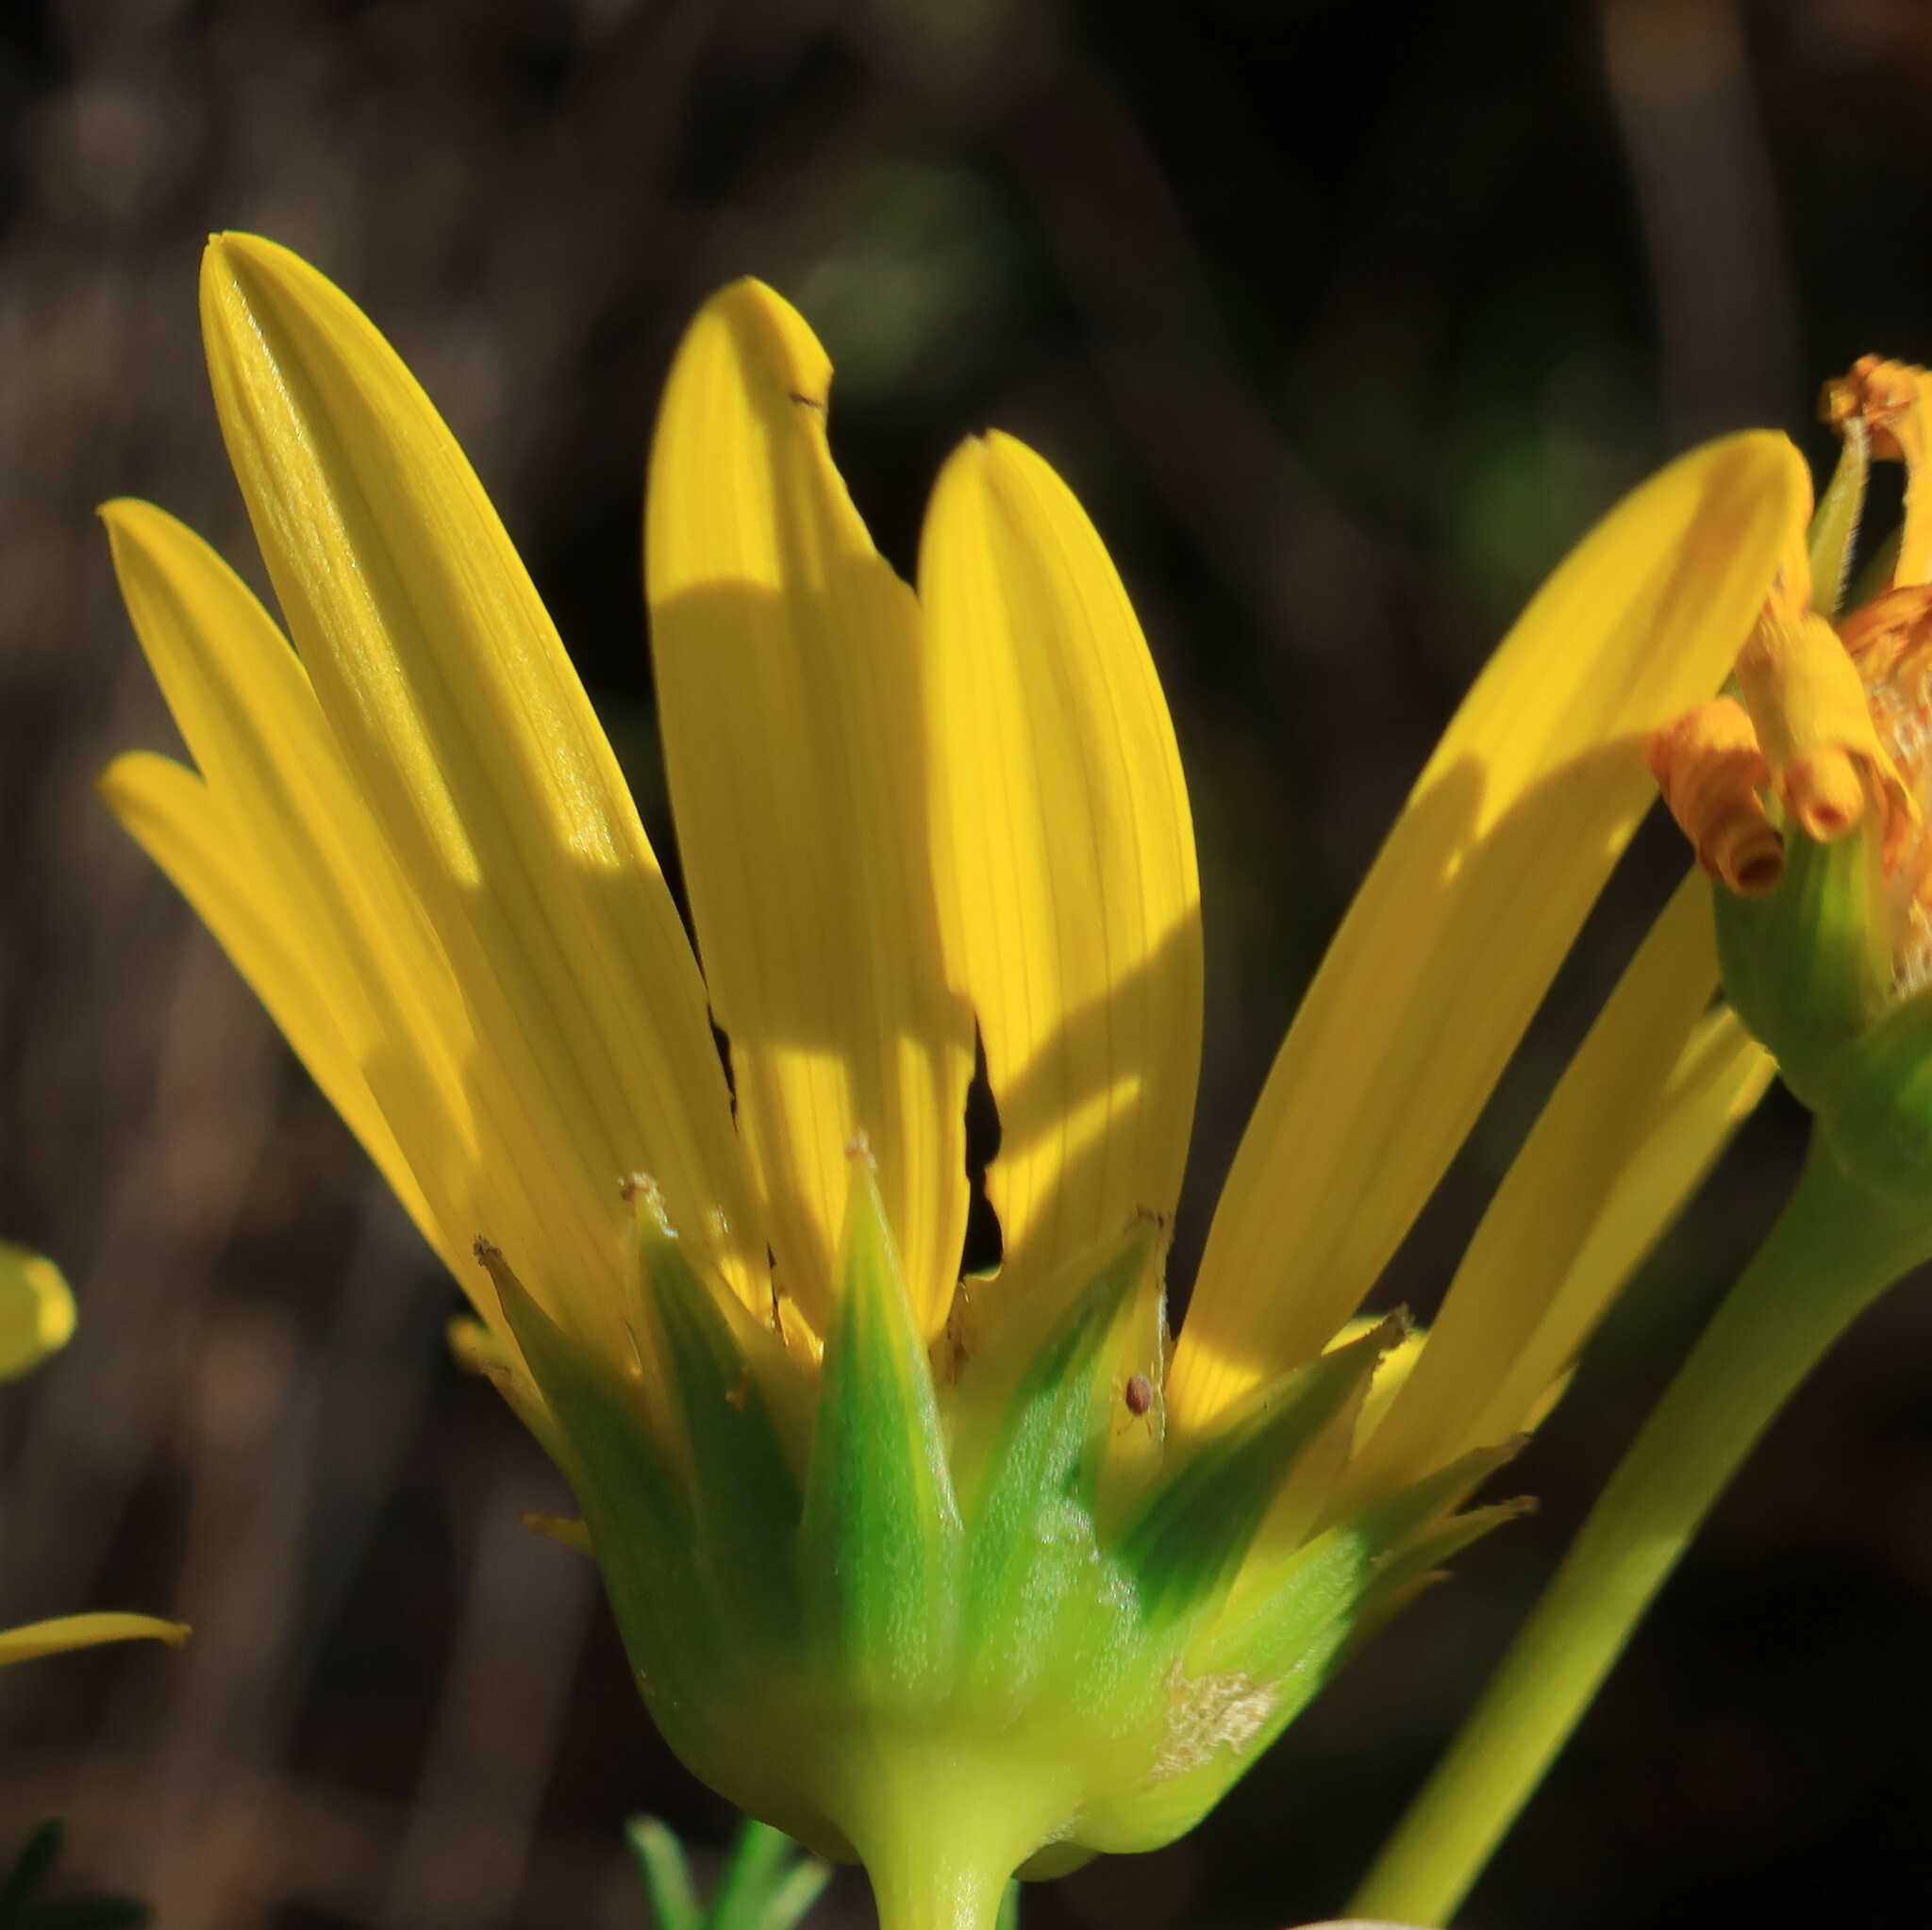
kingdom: Plantae
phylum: Tracheophyta
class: Magnoliopsida
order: Asterales
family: Asteraceae
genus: Euryops
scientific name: Euryops abrotanifolius
